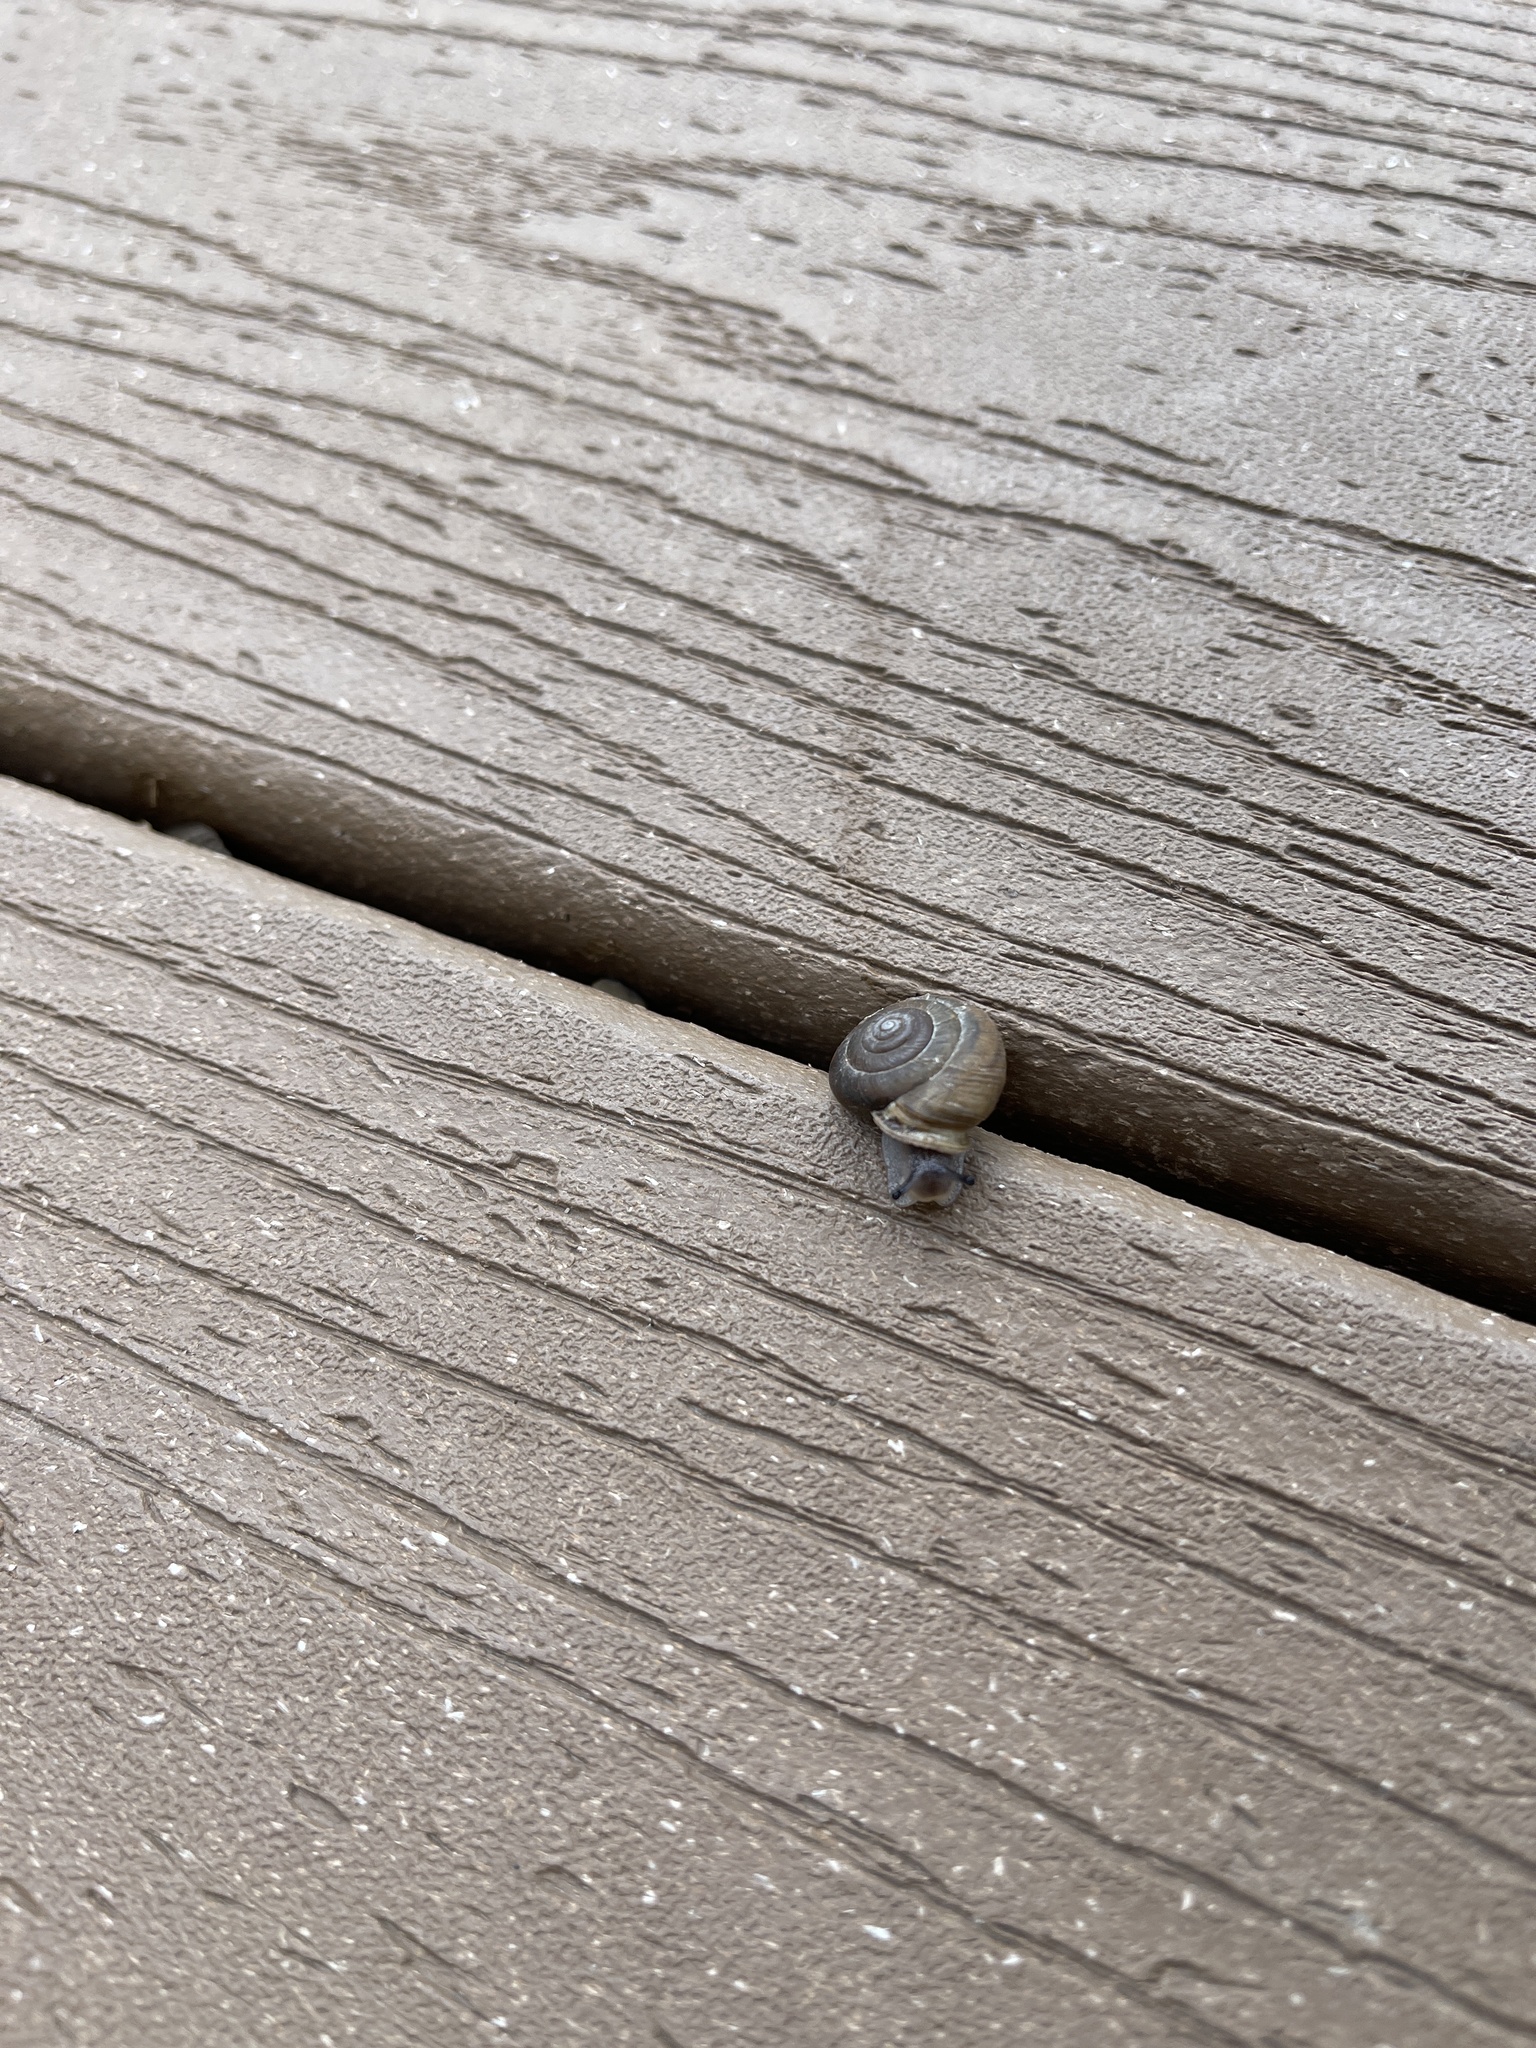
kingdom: Animalia
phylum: Mollusca
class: Gastropoda
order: Stylommatophora
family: Polygyridae
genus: Ashmunella
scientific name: Ashmunella rhyssa
